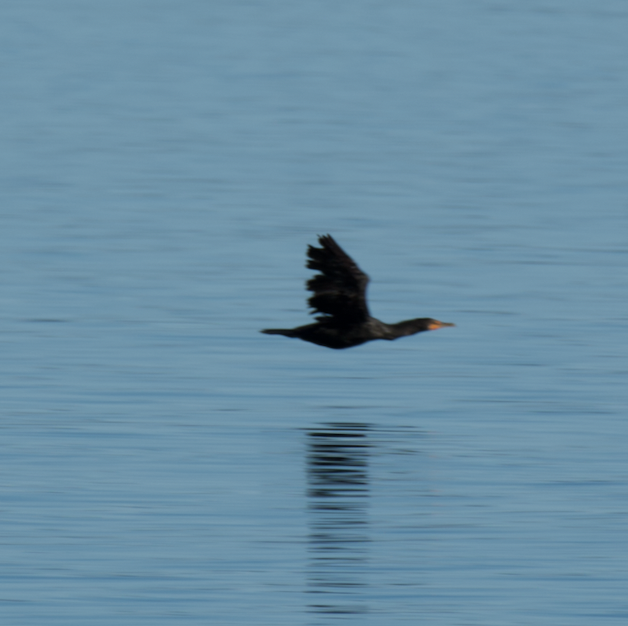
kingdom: Animalia
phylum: Chordata
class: Aves
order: Suliformes
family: Phalacrocoracidae
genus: Phalacrocorax
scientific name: Phalacrocorax auritus
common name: Double-crested cormorant
